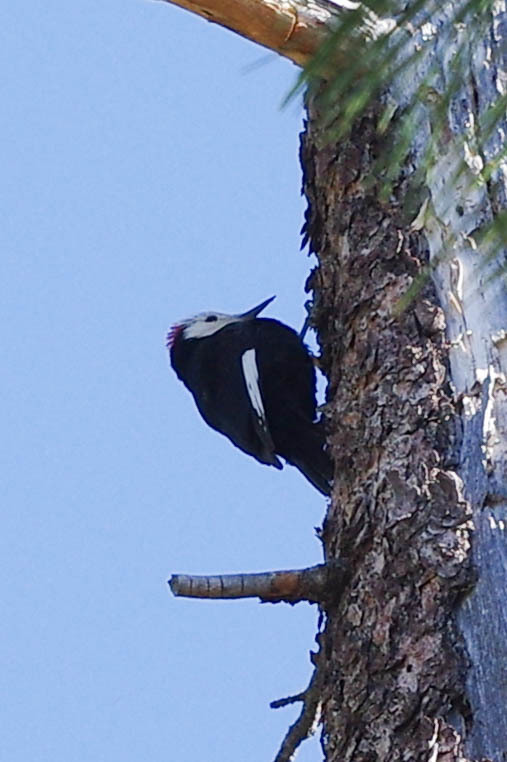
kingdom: Animalia
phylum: Chordata
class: Aves
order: Piciformes
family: Picidae
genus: Leuconotopicus
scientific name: Leuconotopicus albolarvatus
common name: White-headed woodpecker
